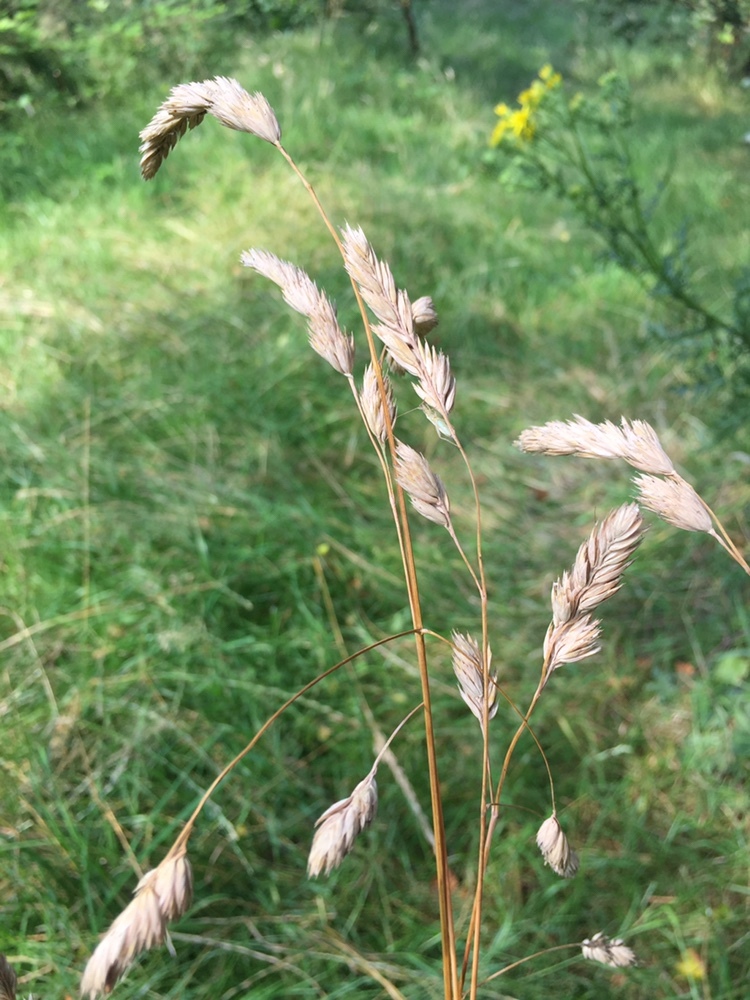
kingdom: Plantae
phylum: Tracheophyta
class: Liliopsida
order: Poales
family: Poaceae
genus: Dactylis
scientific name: Dactylis glomerata
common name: Orchardgrass
